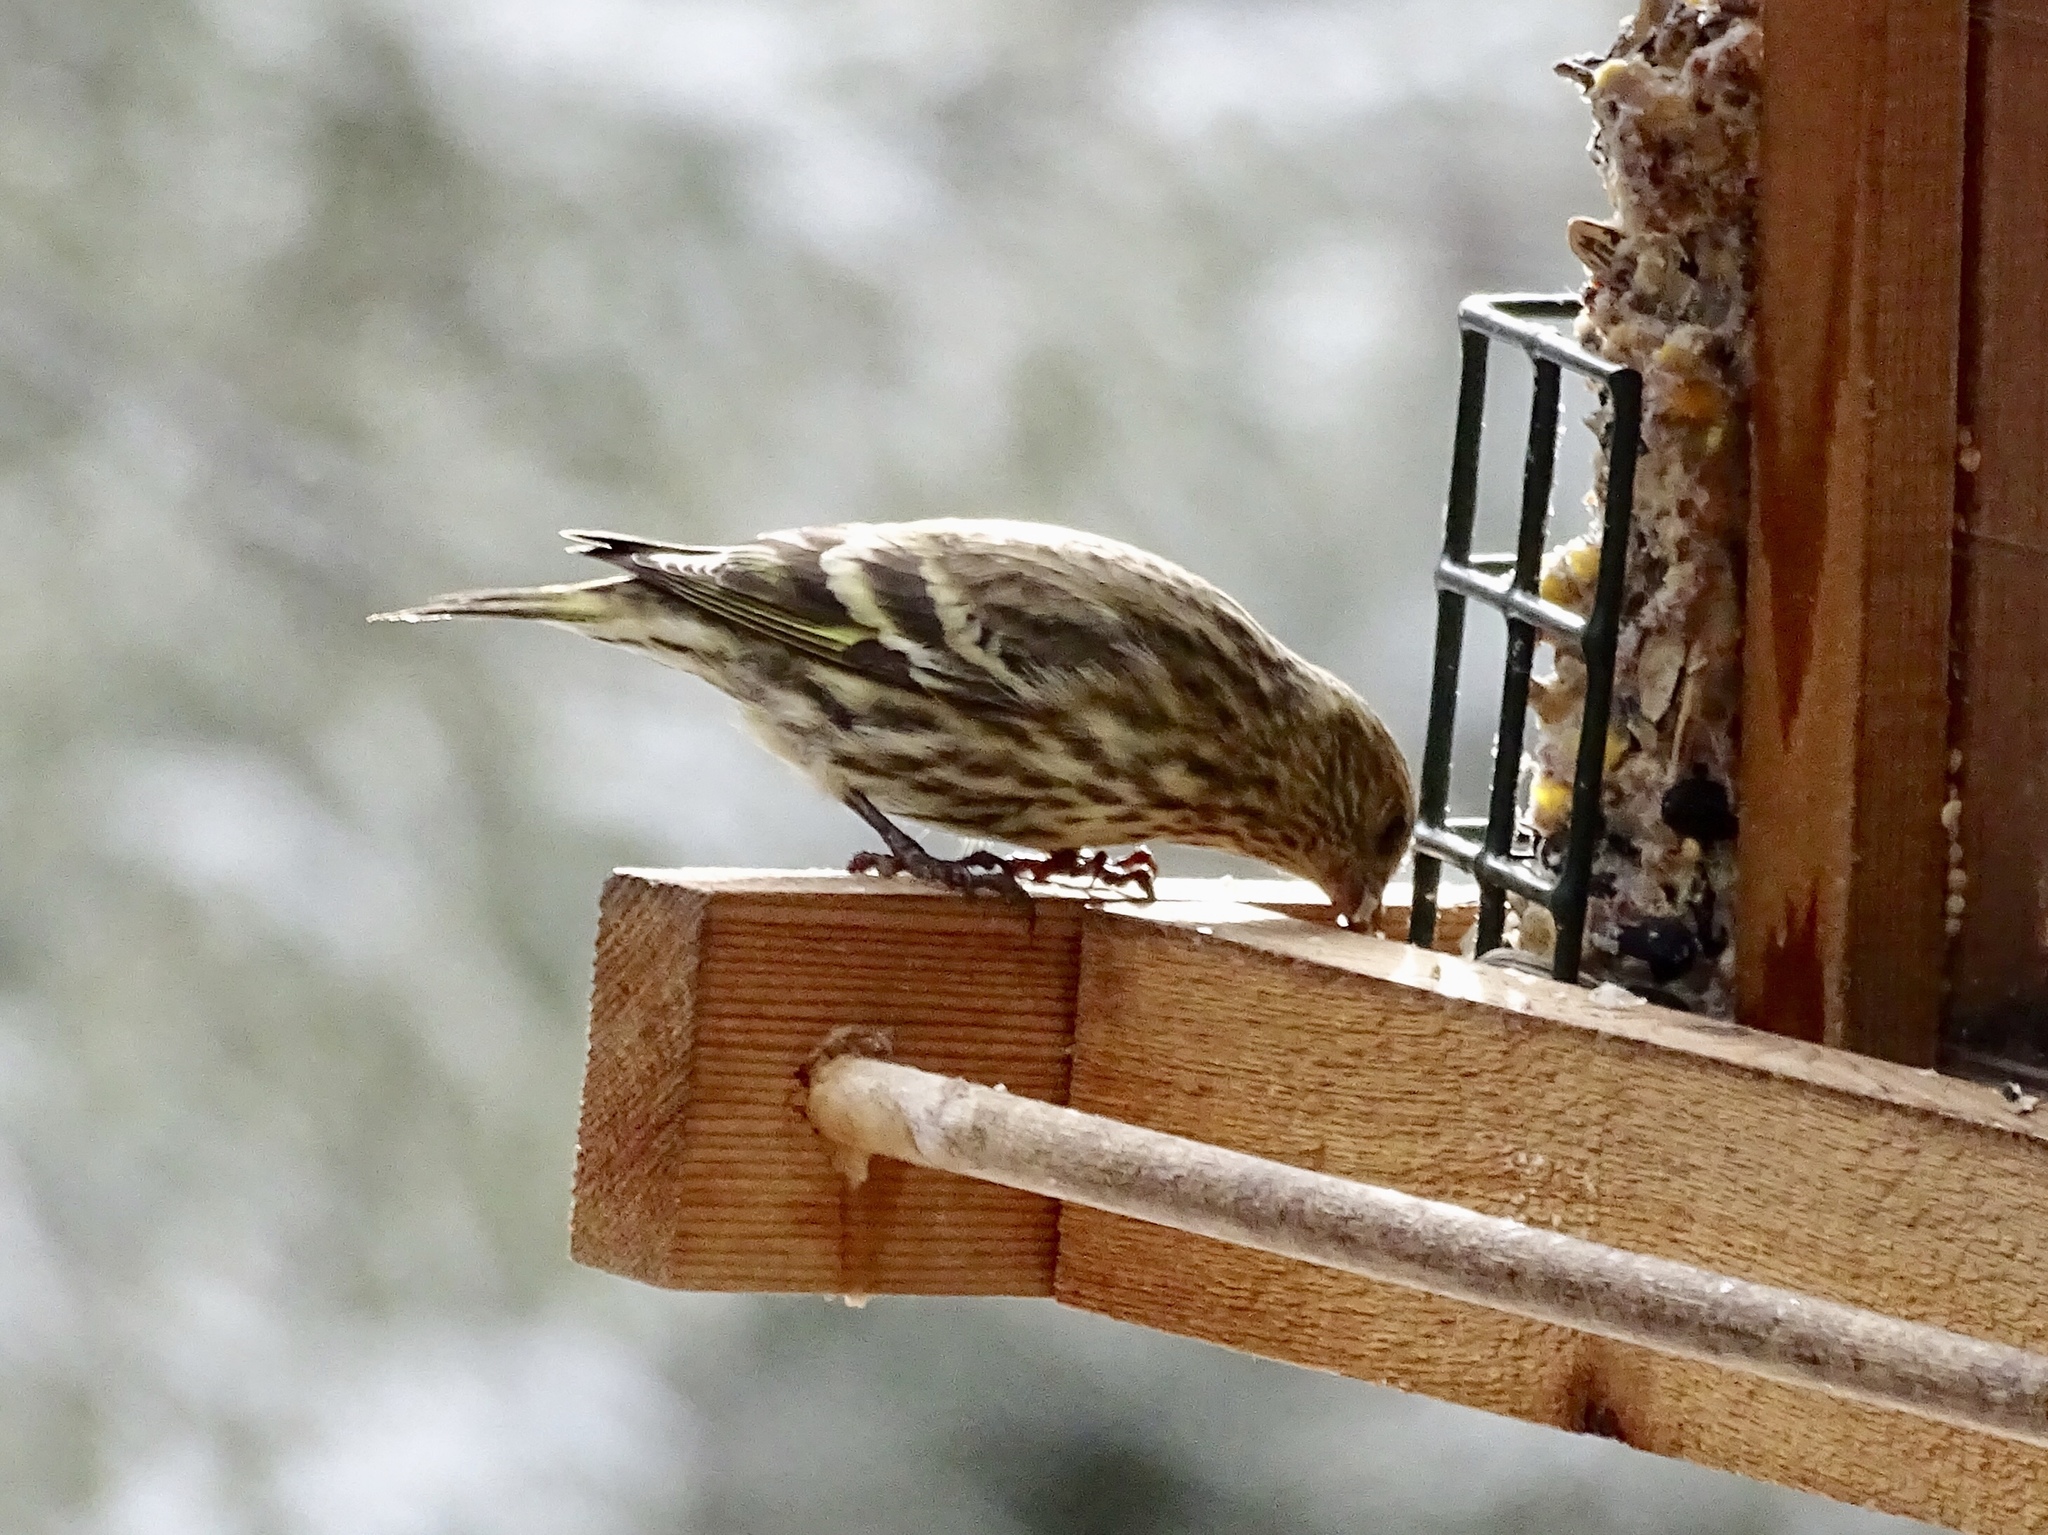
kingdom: Animalia
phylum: Chordata
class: Aves
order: Passeriformes
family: Fringillidae
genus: Spinus
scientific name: Spinus pinus
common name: Pine siskin
